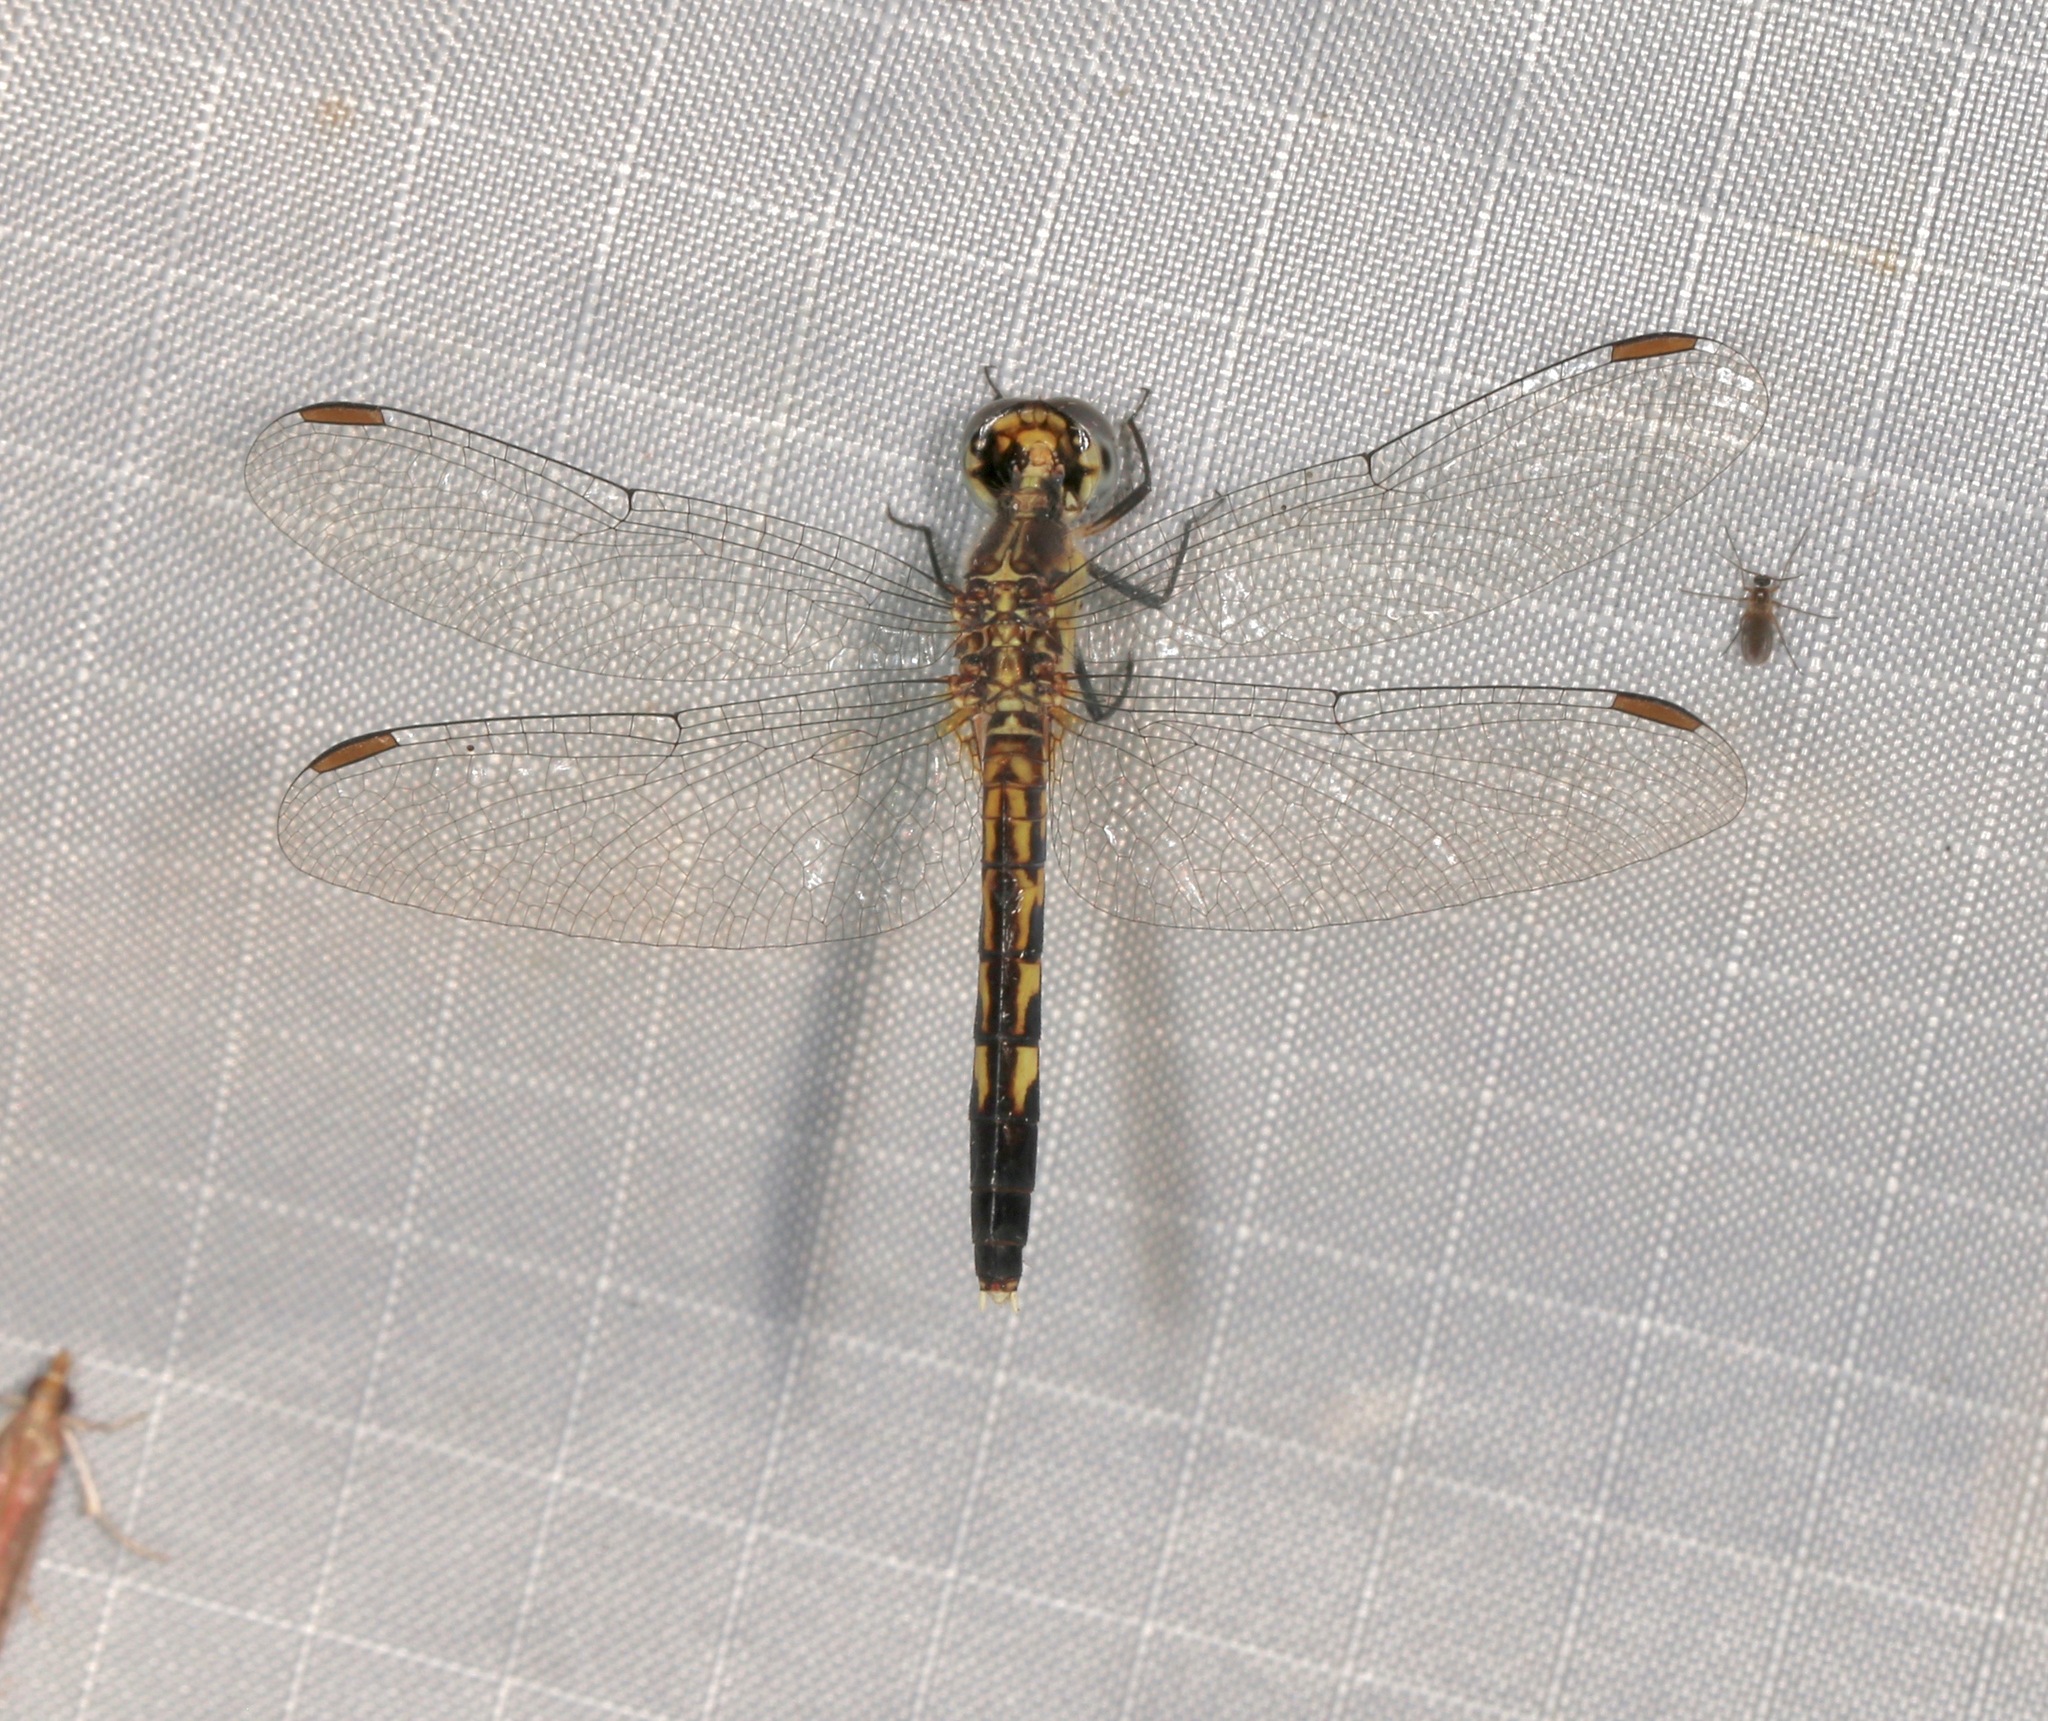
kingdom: Animalia
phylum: Arthropoda
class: Insecta
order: Odonata
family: Libellulidae
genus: Erythrodiplax
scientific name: Erythrodiplax minuscula
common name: Little blue dragonlet
